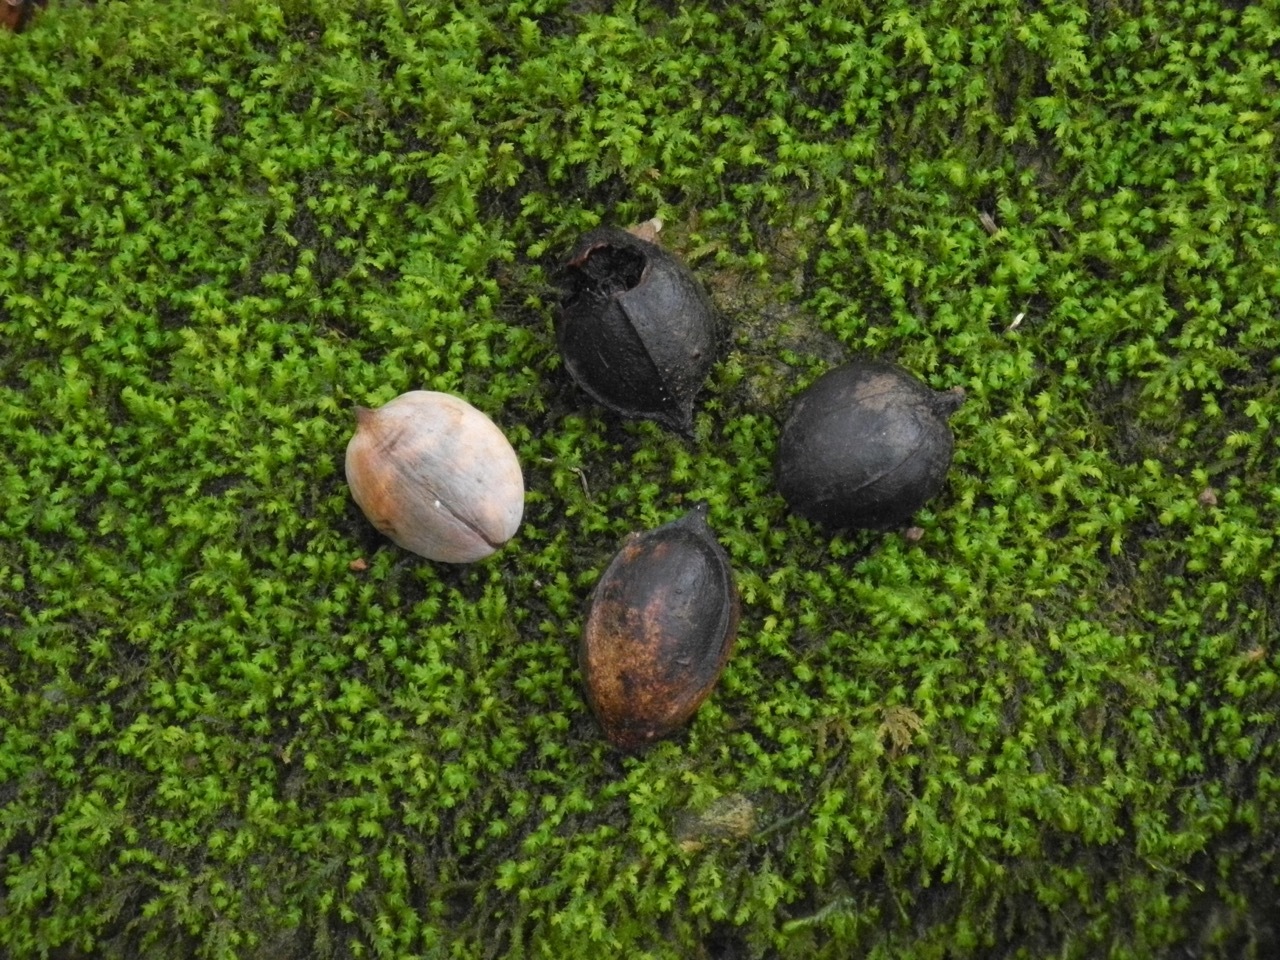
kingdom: Plantae
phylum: Tracheophyta
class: Magnoliopsida
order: Fagales
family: Juglandaceae
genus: Carya
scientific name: Carya cordiformis
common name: Bitternut hickory
